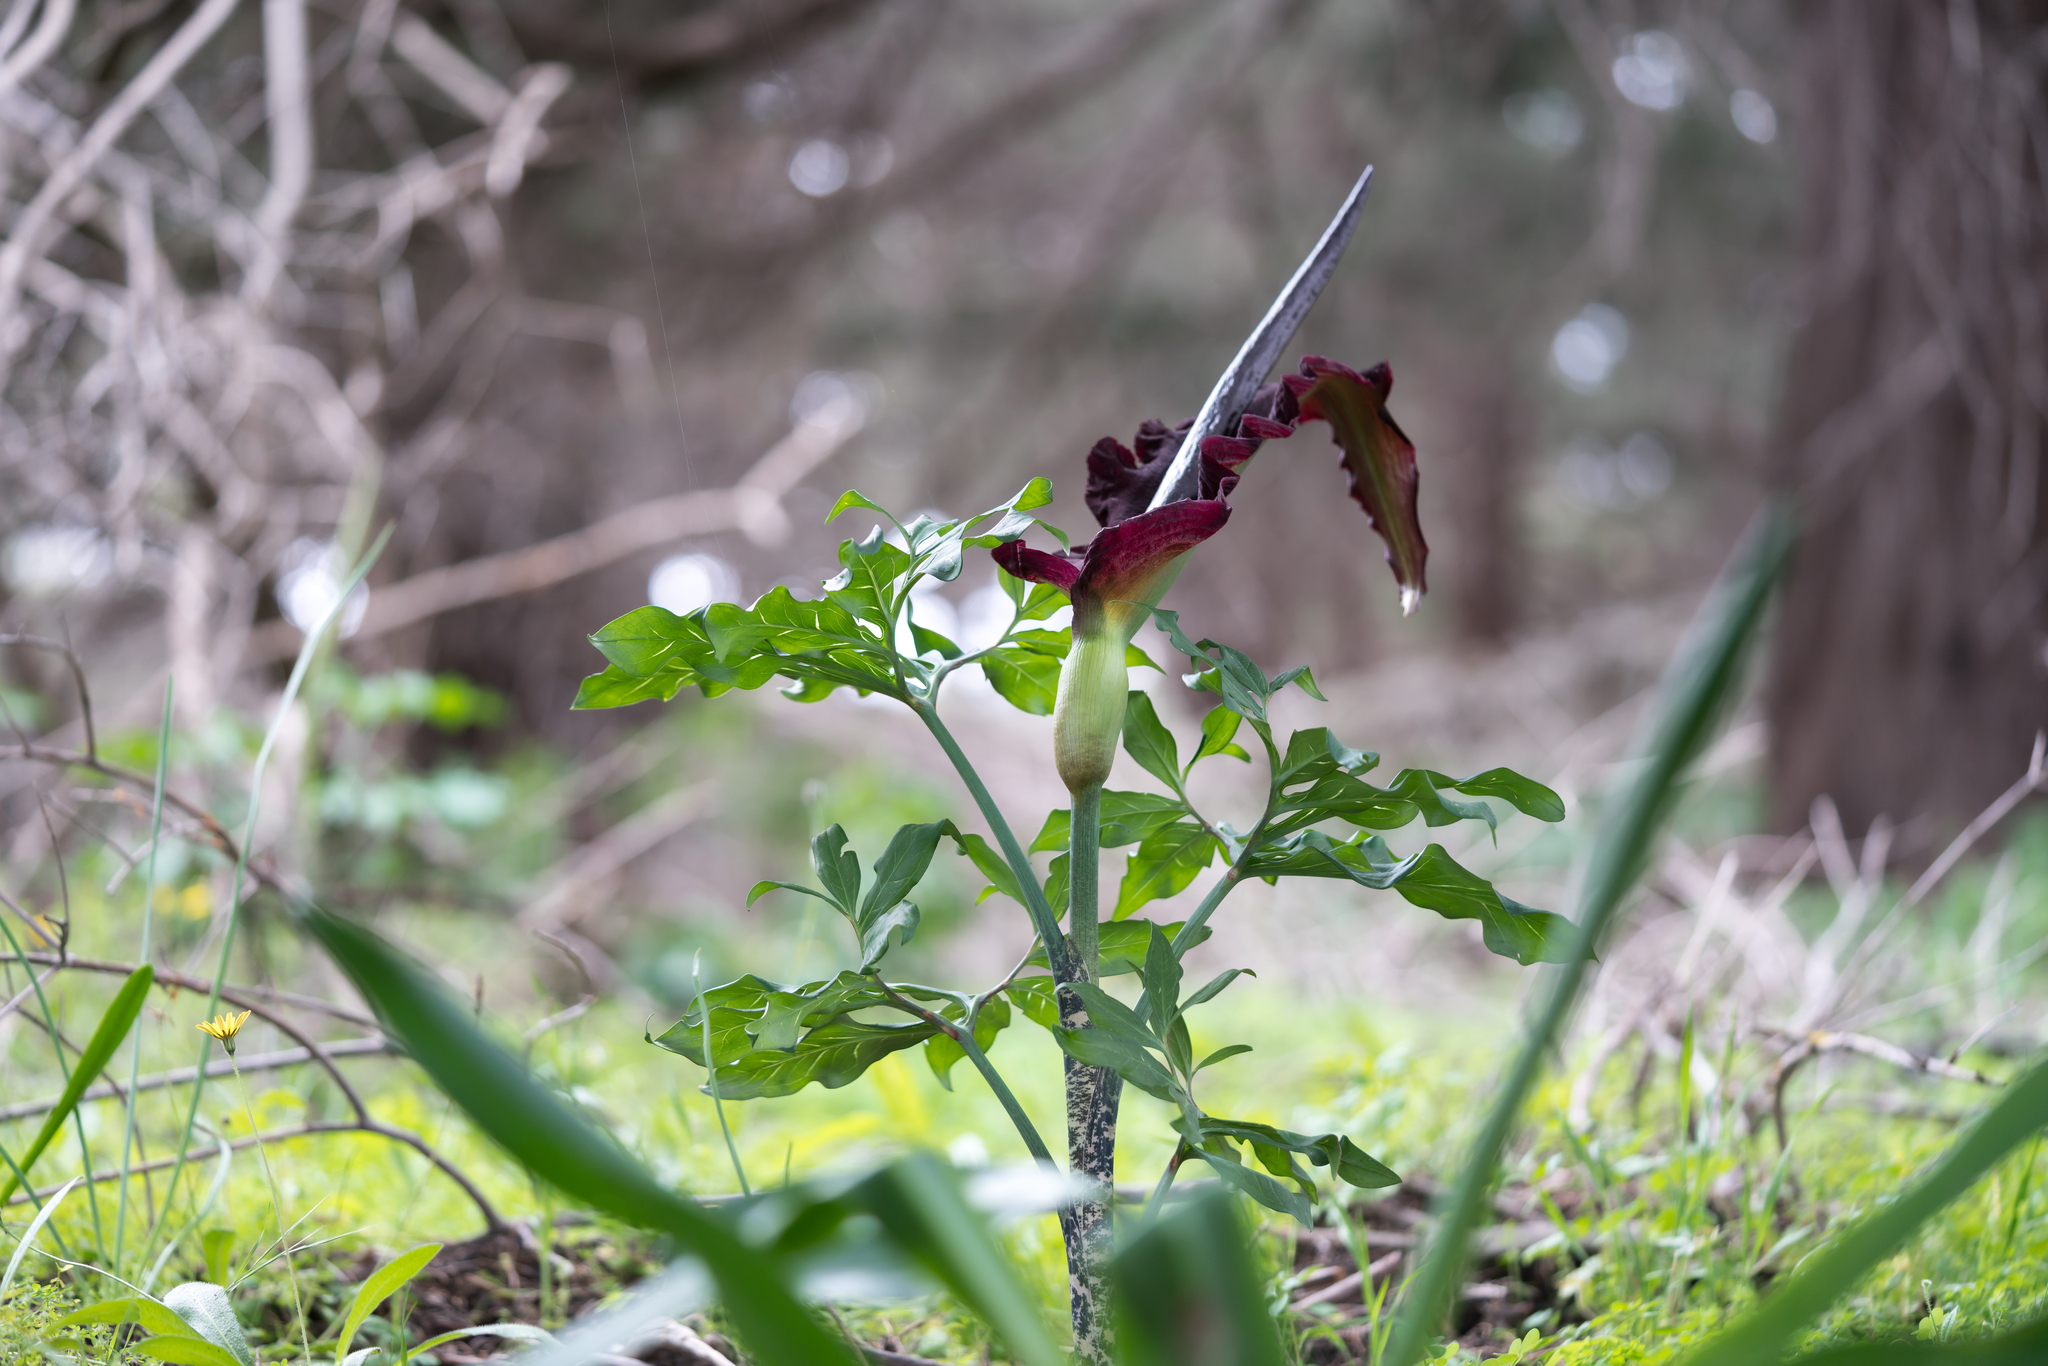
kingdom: Plantae
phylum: Tracheophyta
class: Liliopsida
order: Alismatales
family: Araceae
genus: Dracunculus
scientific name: Dracunculus vulgaris
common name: Dragon arum
